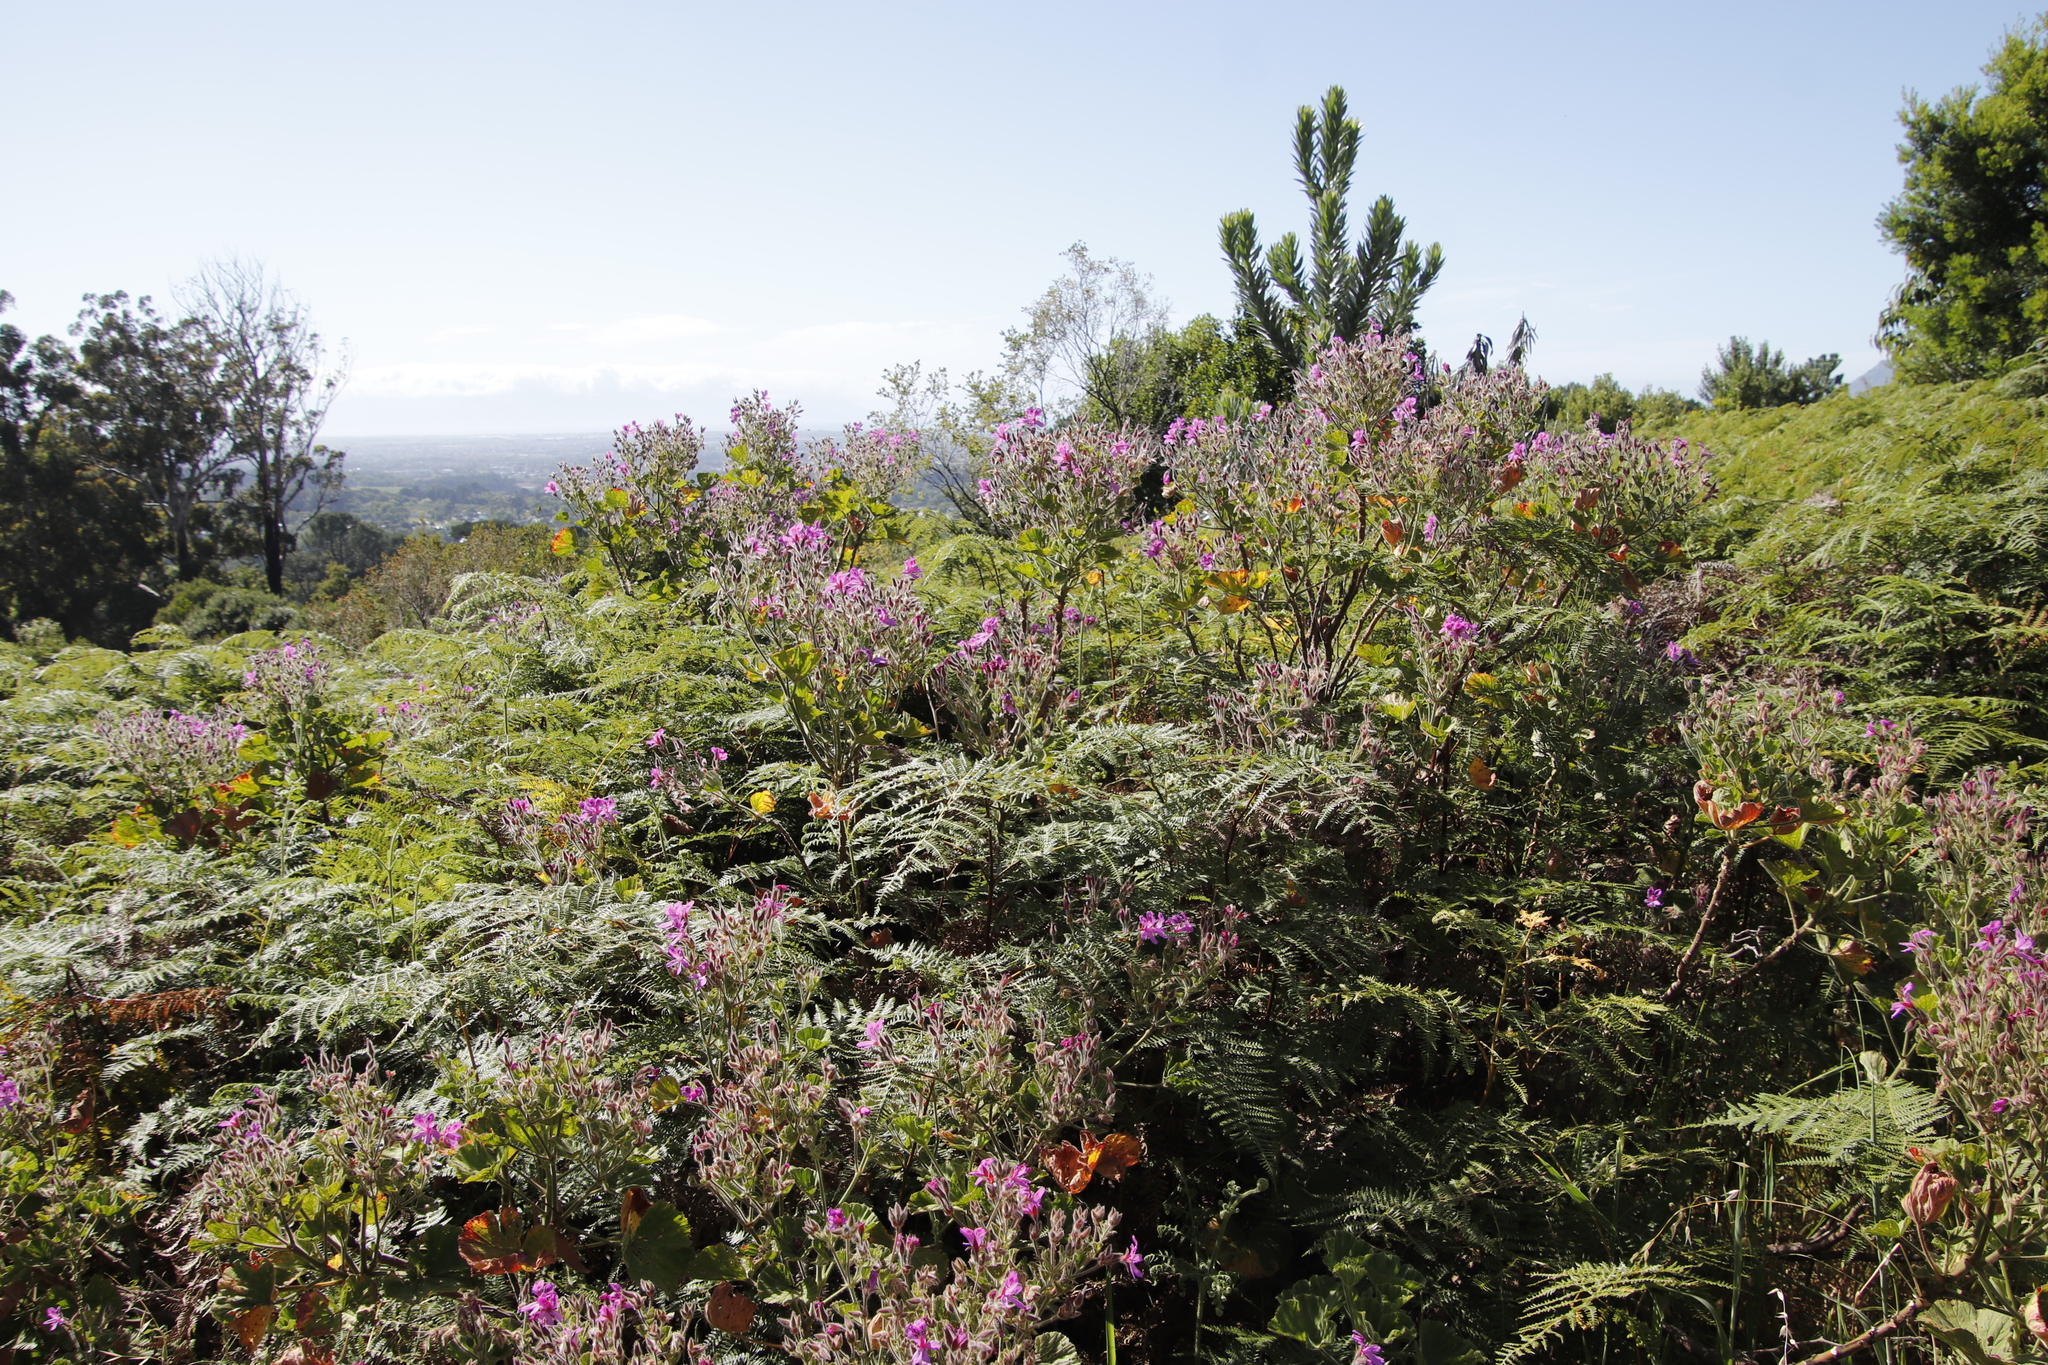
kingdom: Plantae
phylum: Tracheophyta
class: Magnoliopsida
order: Geraniales
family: Geraniaceae
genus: Pelargonium
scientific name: Pelargonium cucullatum
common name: Tree pelargonium
